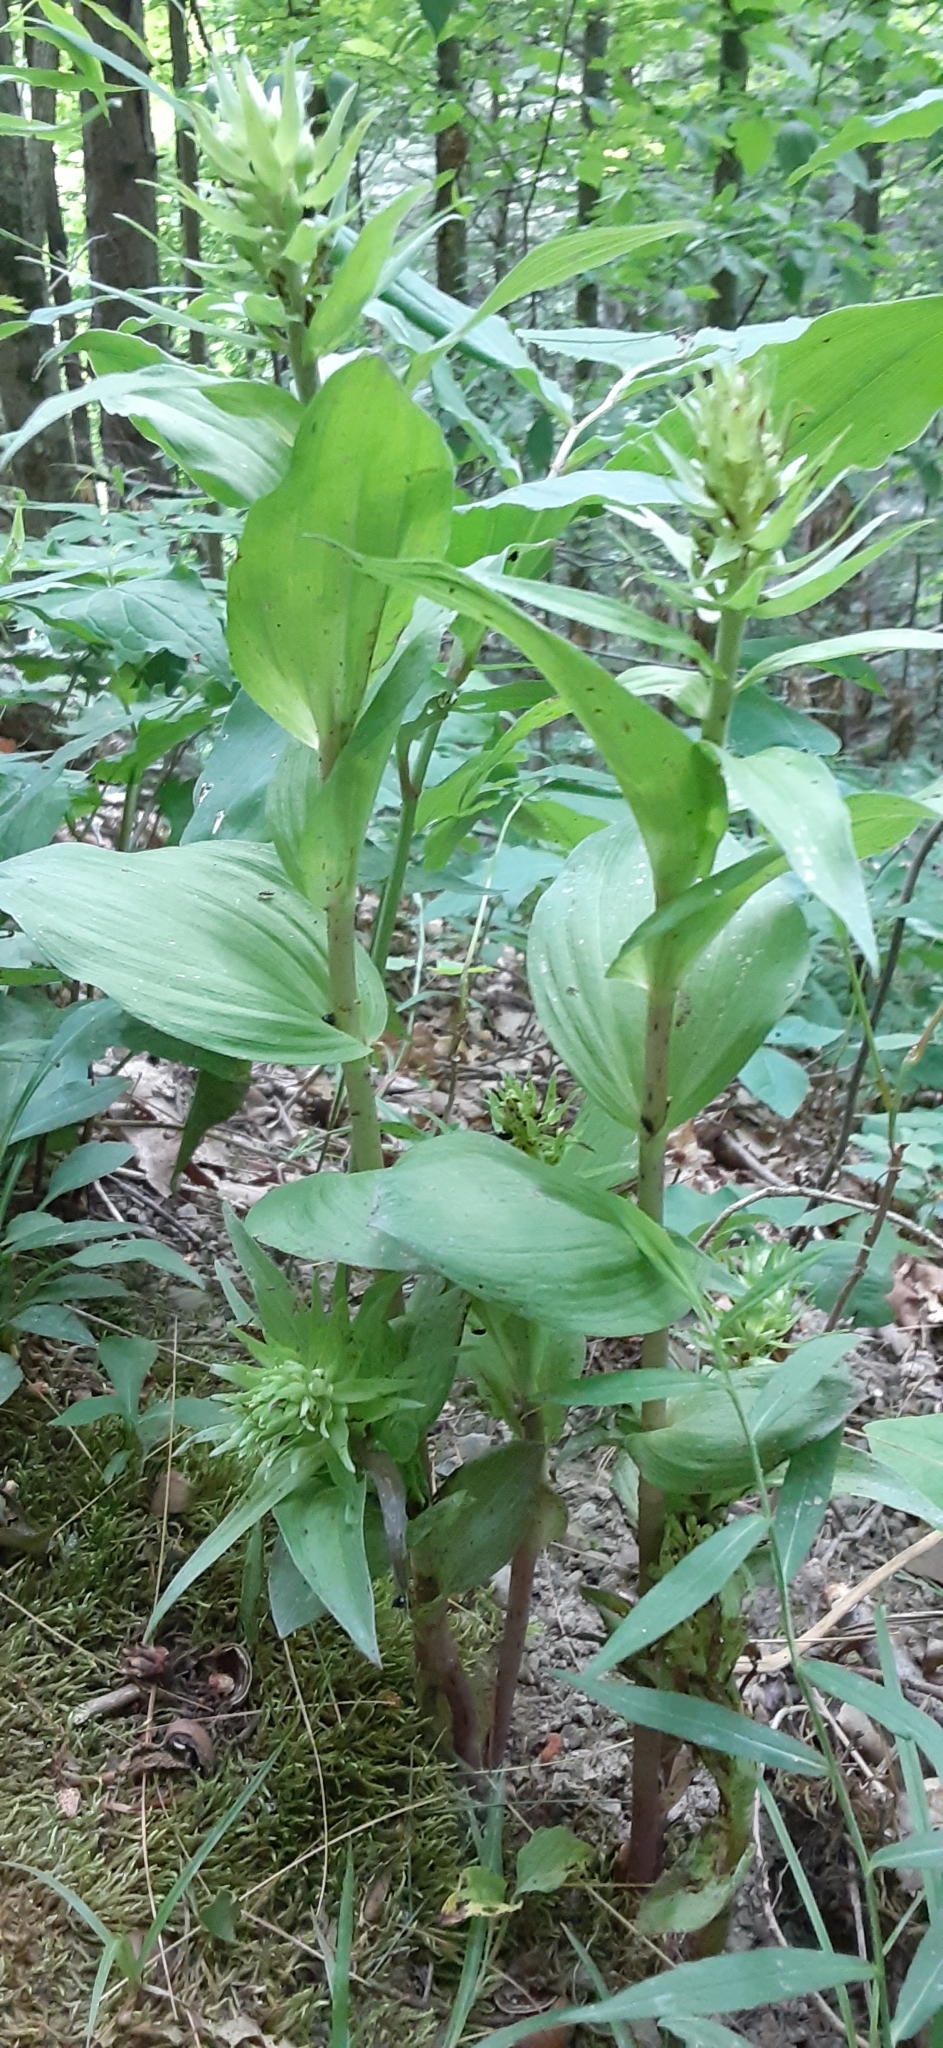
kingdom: Plantae
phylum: Tracheophyta
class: Liliopsida
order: Asparagales
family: Orchidaceae
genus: Epipactis
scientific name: Epipactis helleborine
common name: Broad-leaved helleborine
